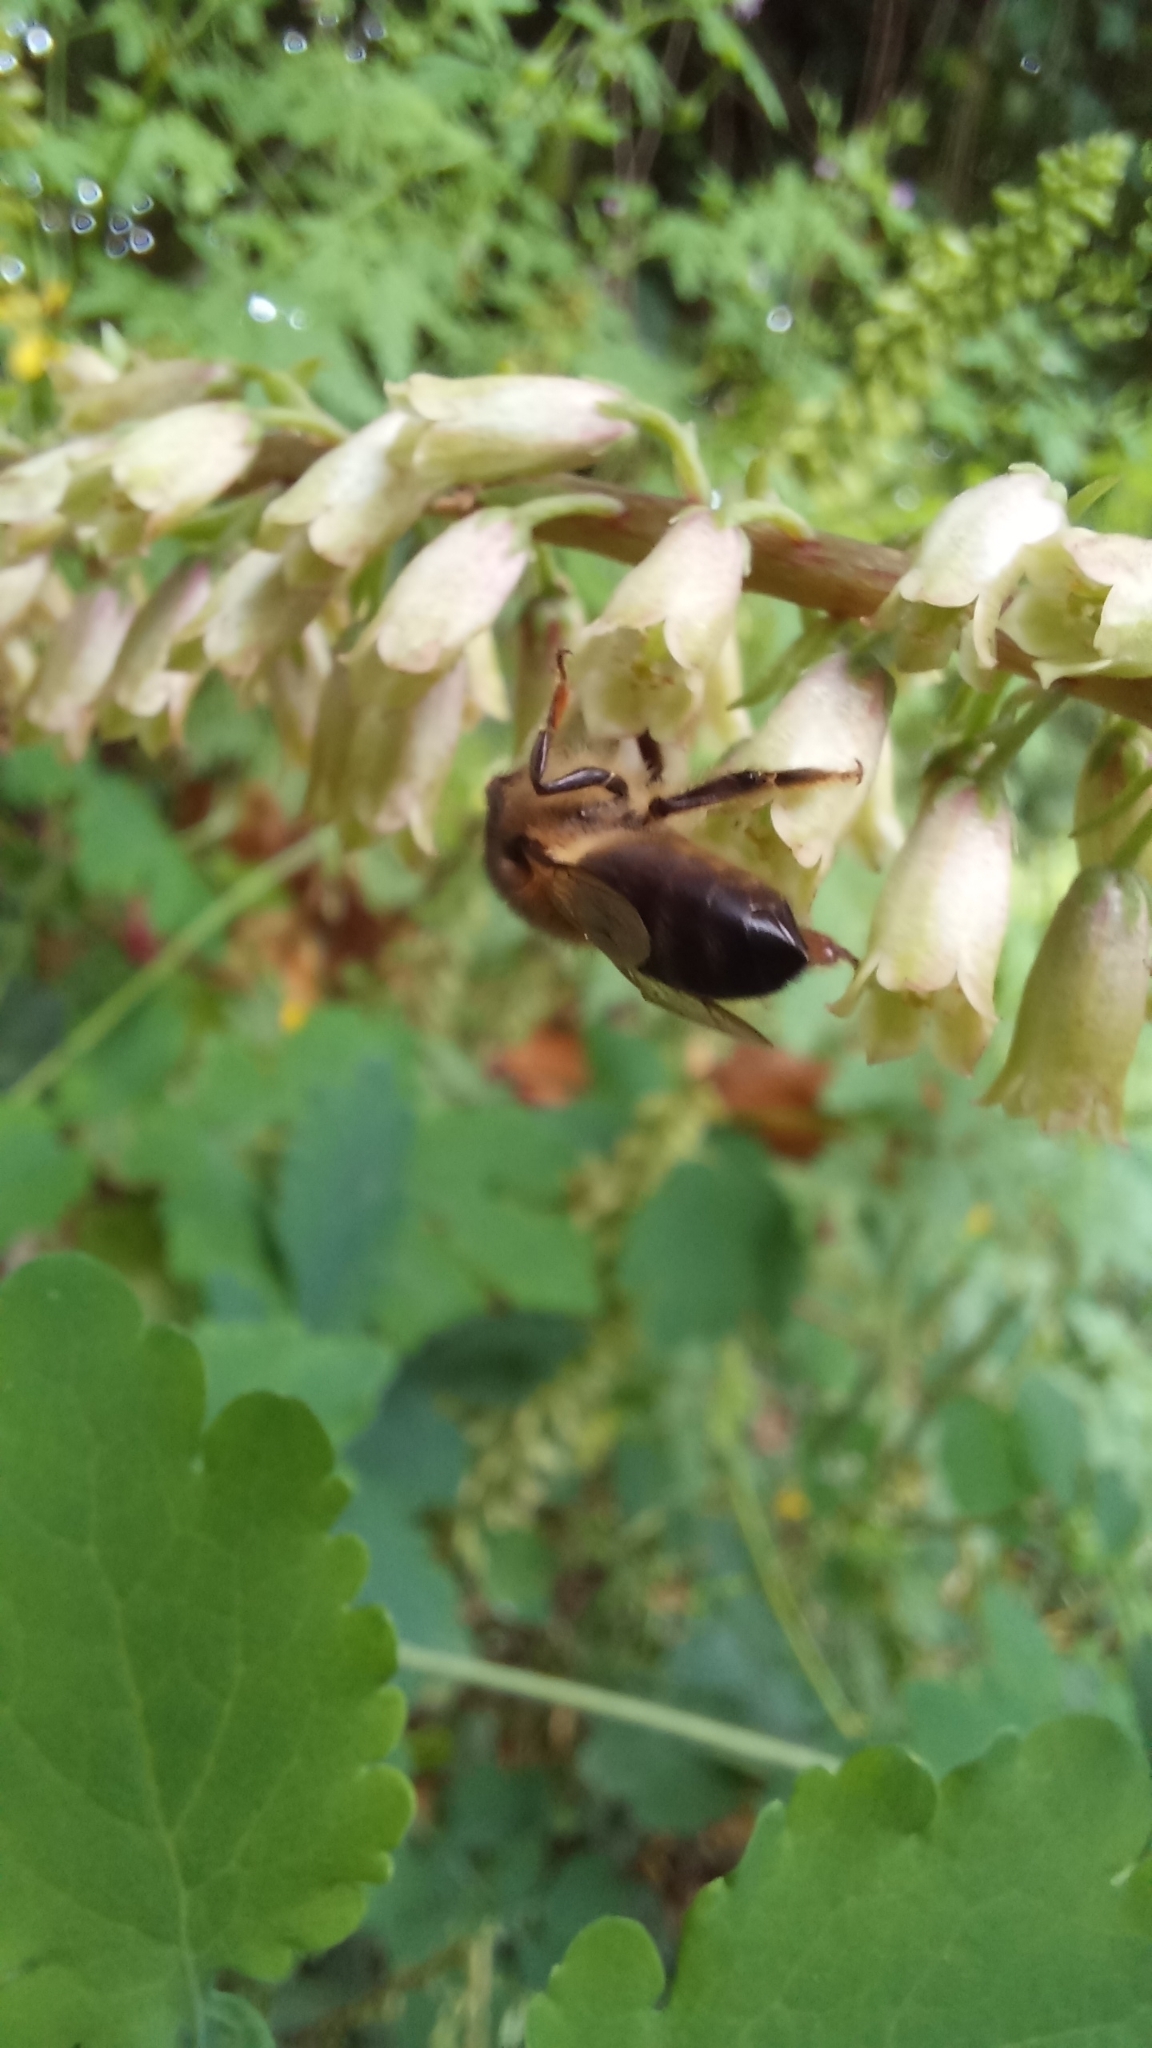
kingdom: Animalia
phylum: Arthropoda
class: Insecta
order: Hymenoptera
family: Apidae
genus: Apis
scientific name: Apis mellifera
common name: Honey bee
